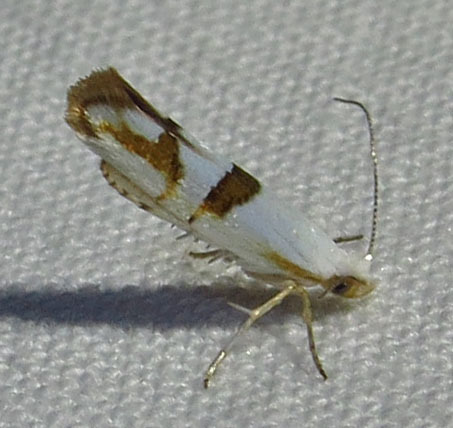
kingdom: Animalia
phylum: Arthropoda
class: Insecta
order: Lepidoptera
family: Argyresthiidae
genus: Argyresthia
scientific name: Argyresthia oreasella
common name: Cherry shoot borer moth
